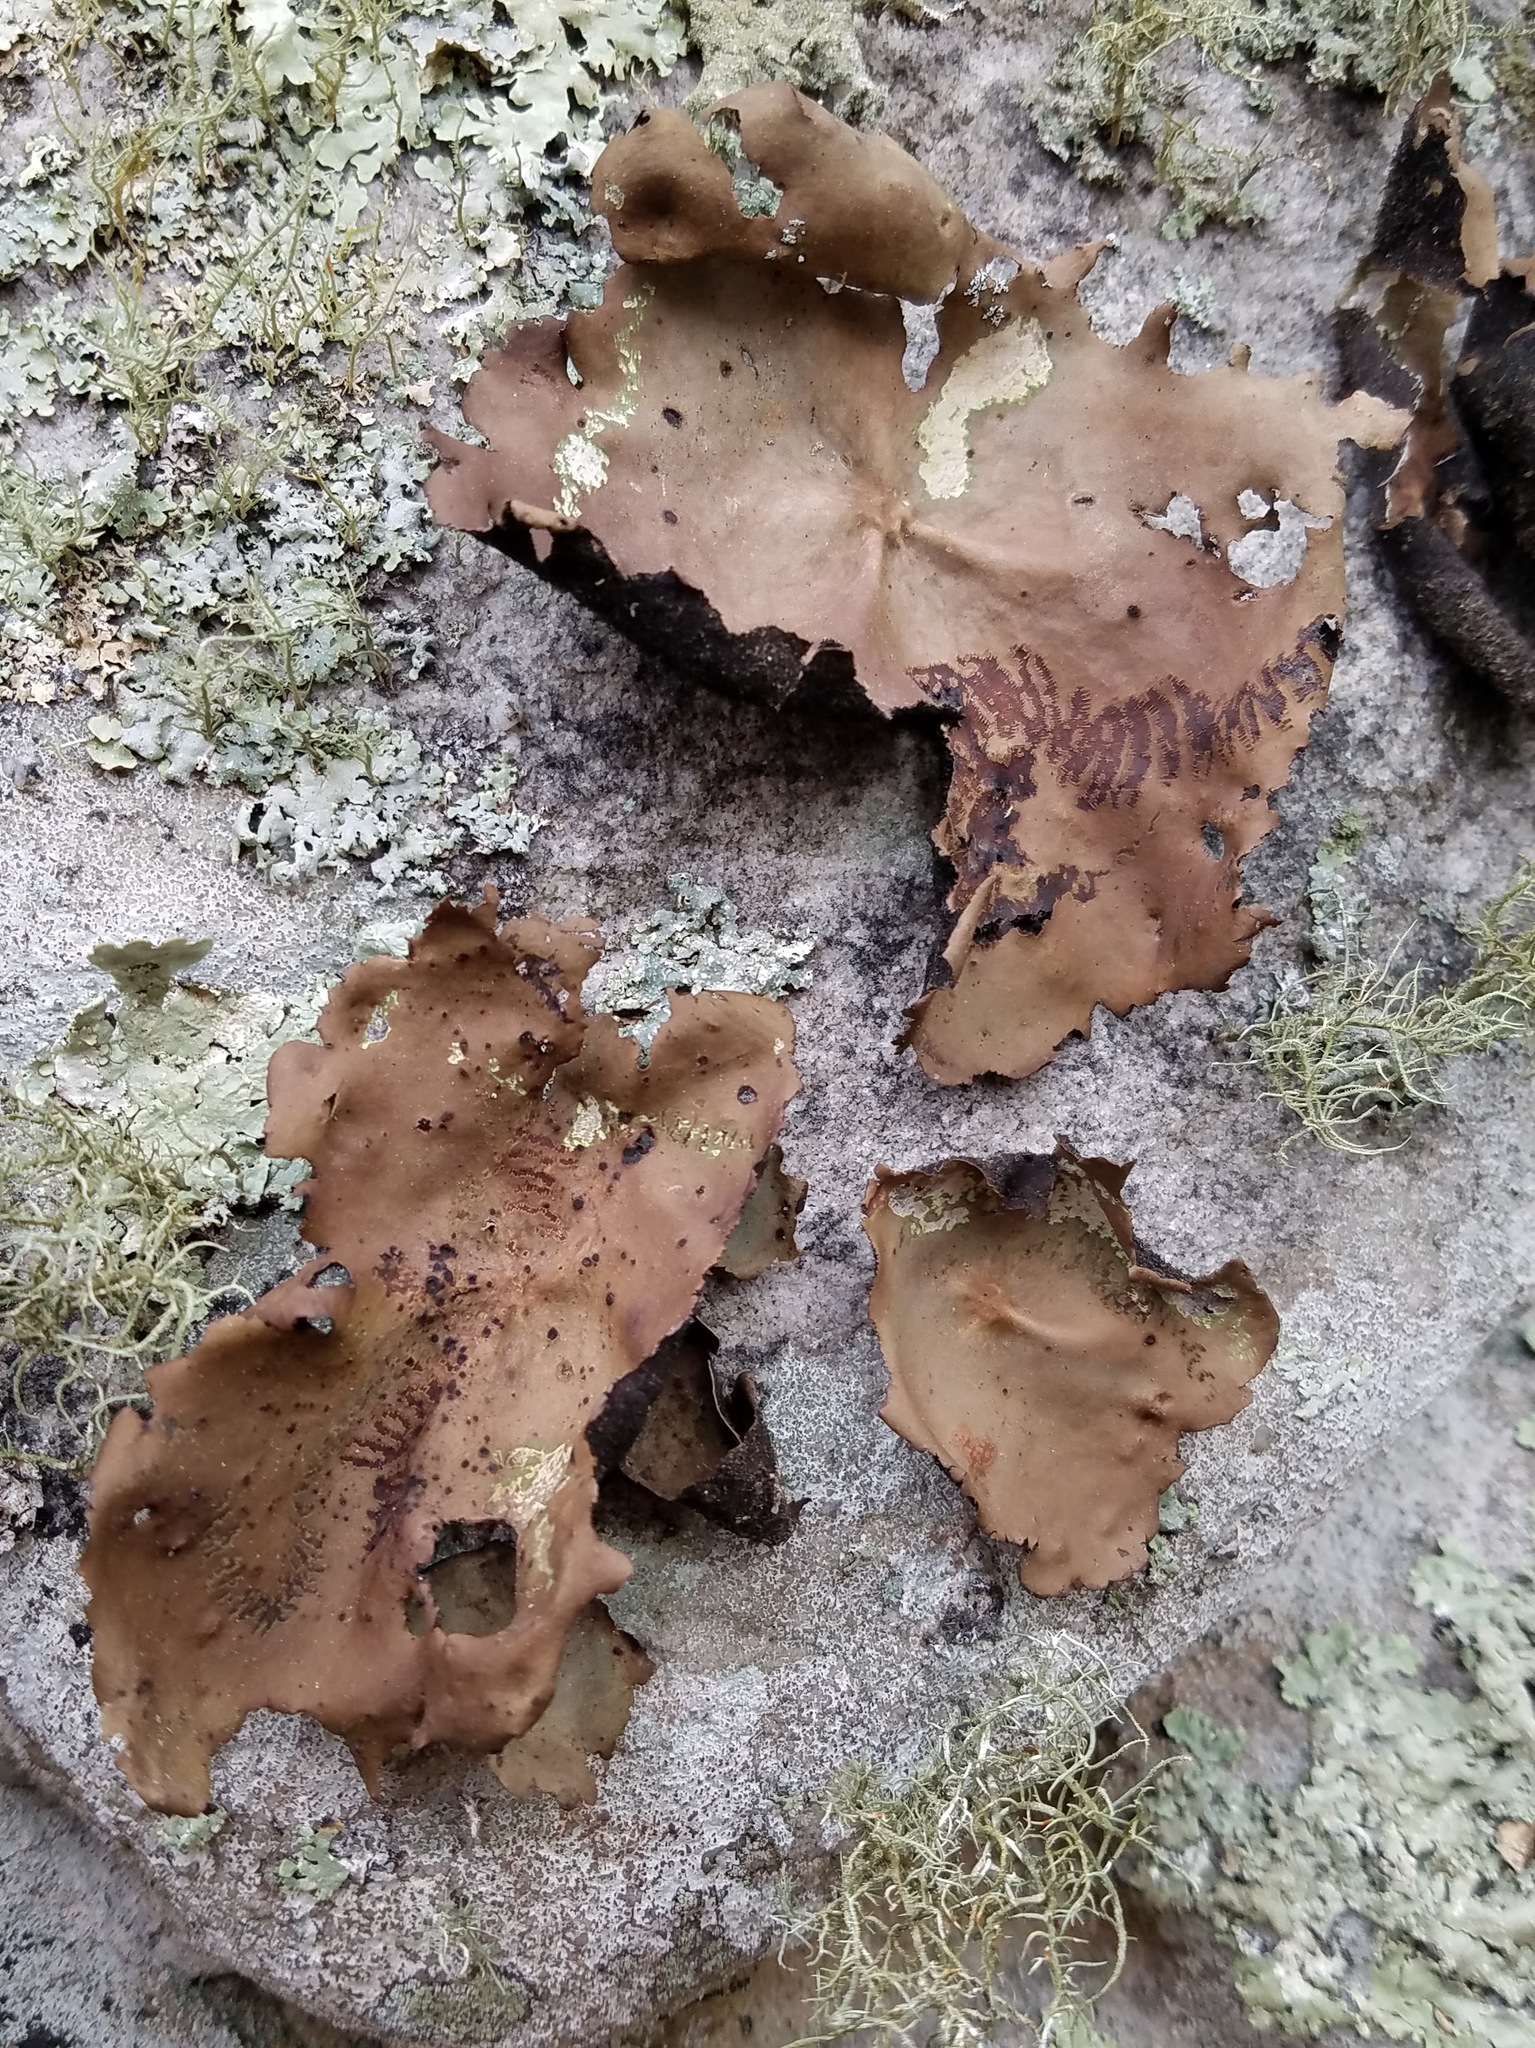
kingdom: Fungi
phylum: Ascomycota
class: Lecanoromycetes
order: Umbilicariales
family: Umbilicariaceae
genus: Umbilicaria
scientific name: Umbilicaria mammulata
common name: Smooth rock tripe
